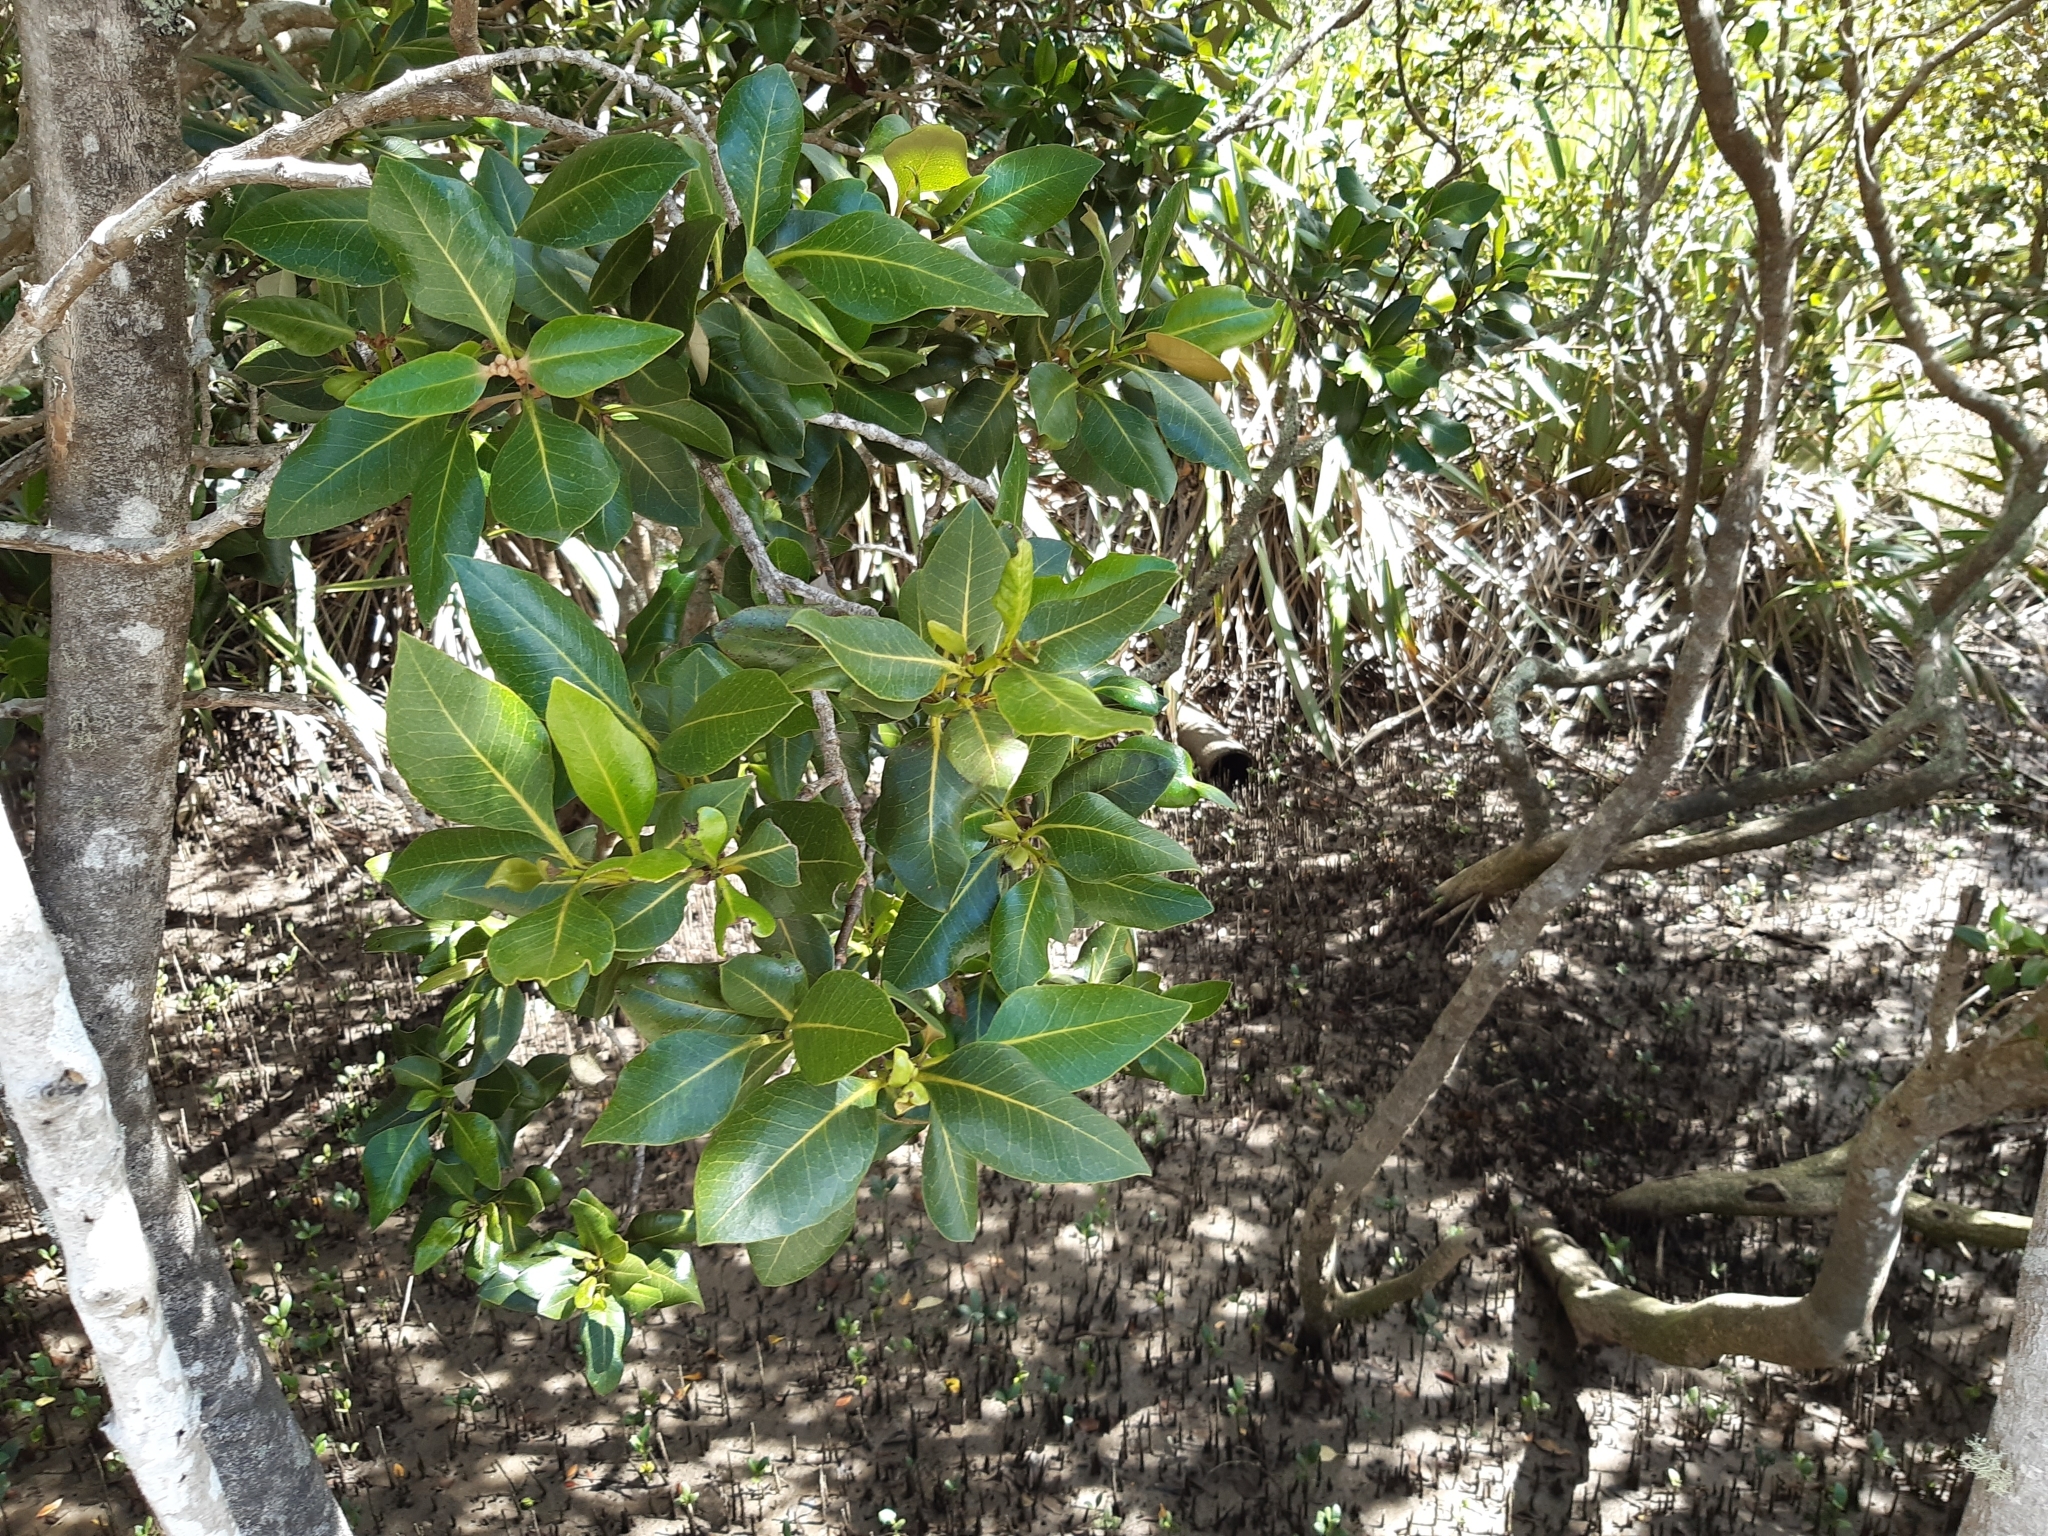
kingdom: Plantae
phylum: Tracheophyta
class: Magnoliopsida
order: Lamiales
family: Acanthaceae
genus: Avicennia
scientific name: Avicennia marina
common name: Gray mangrove
